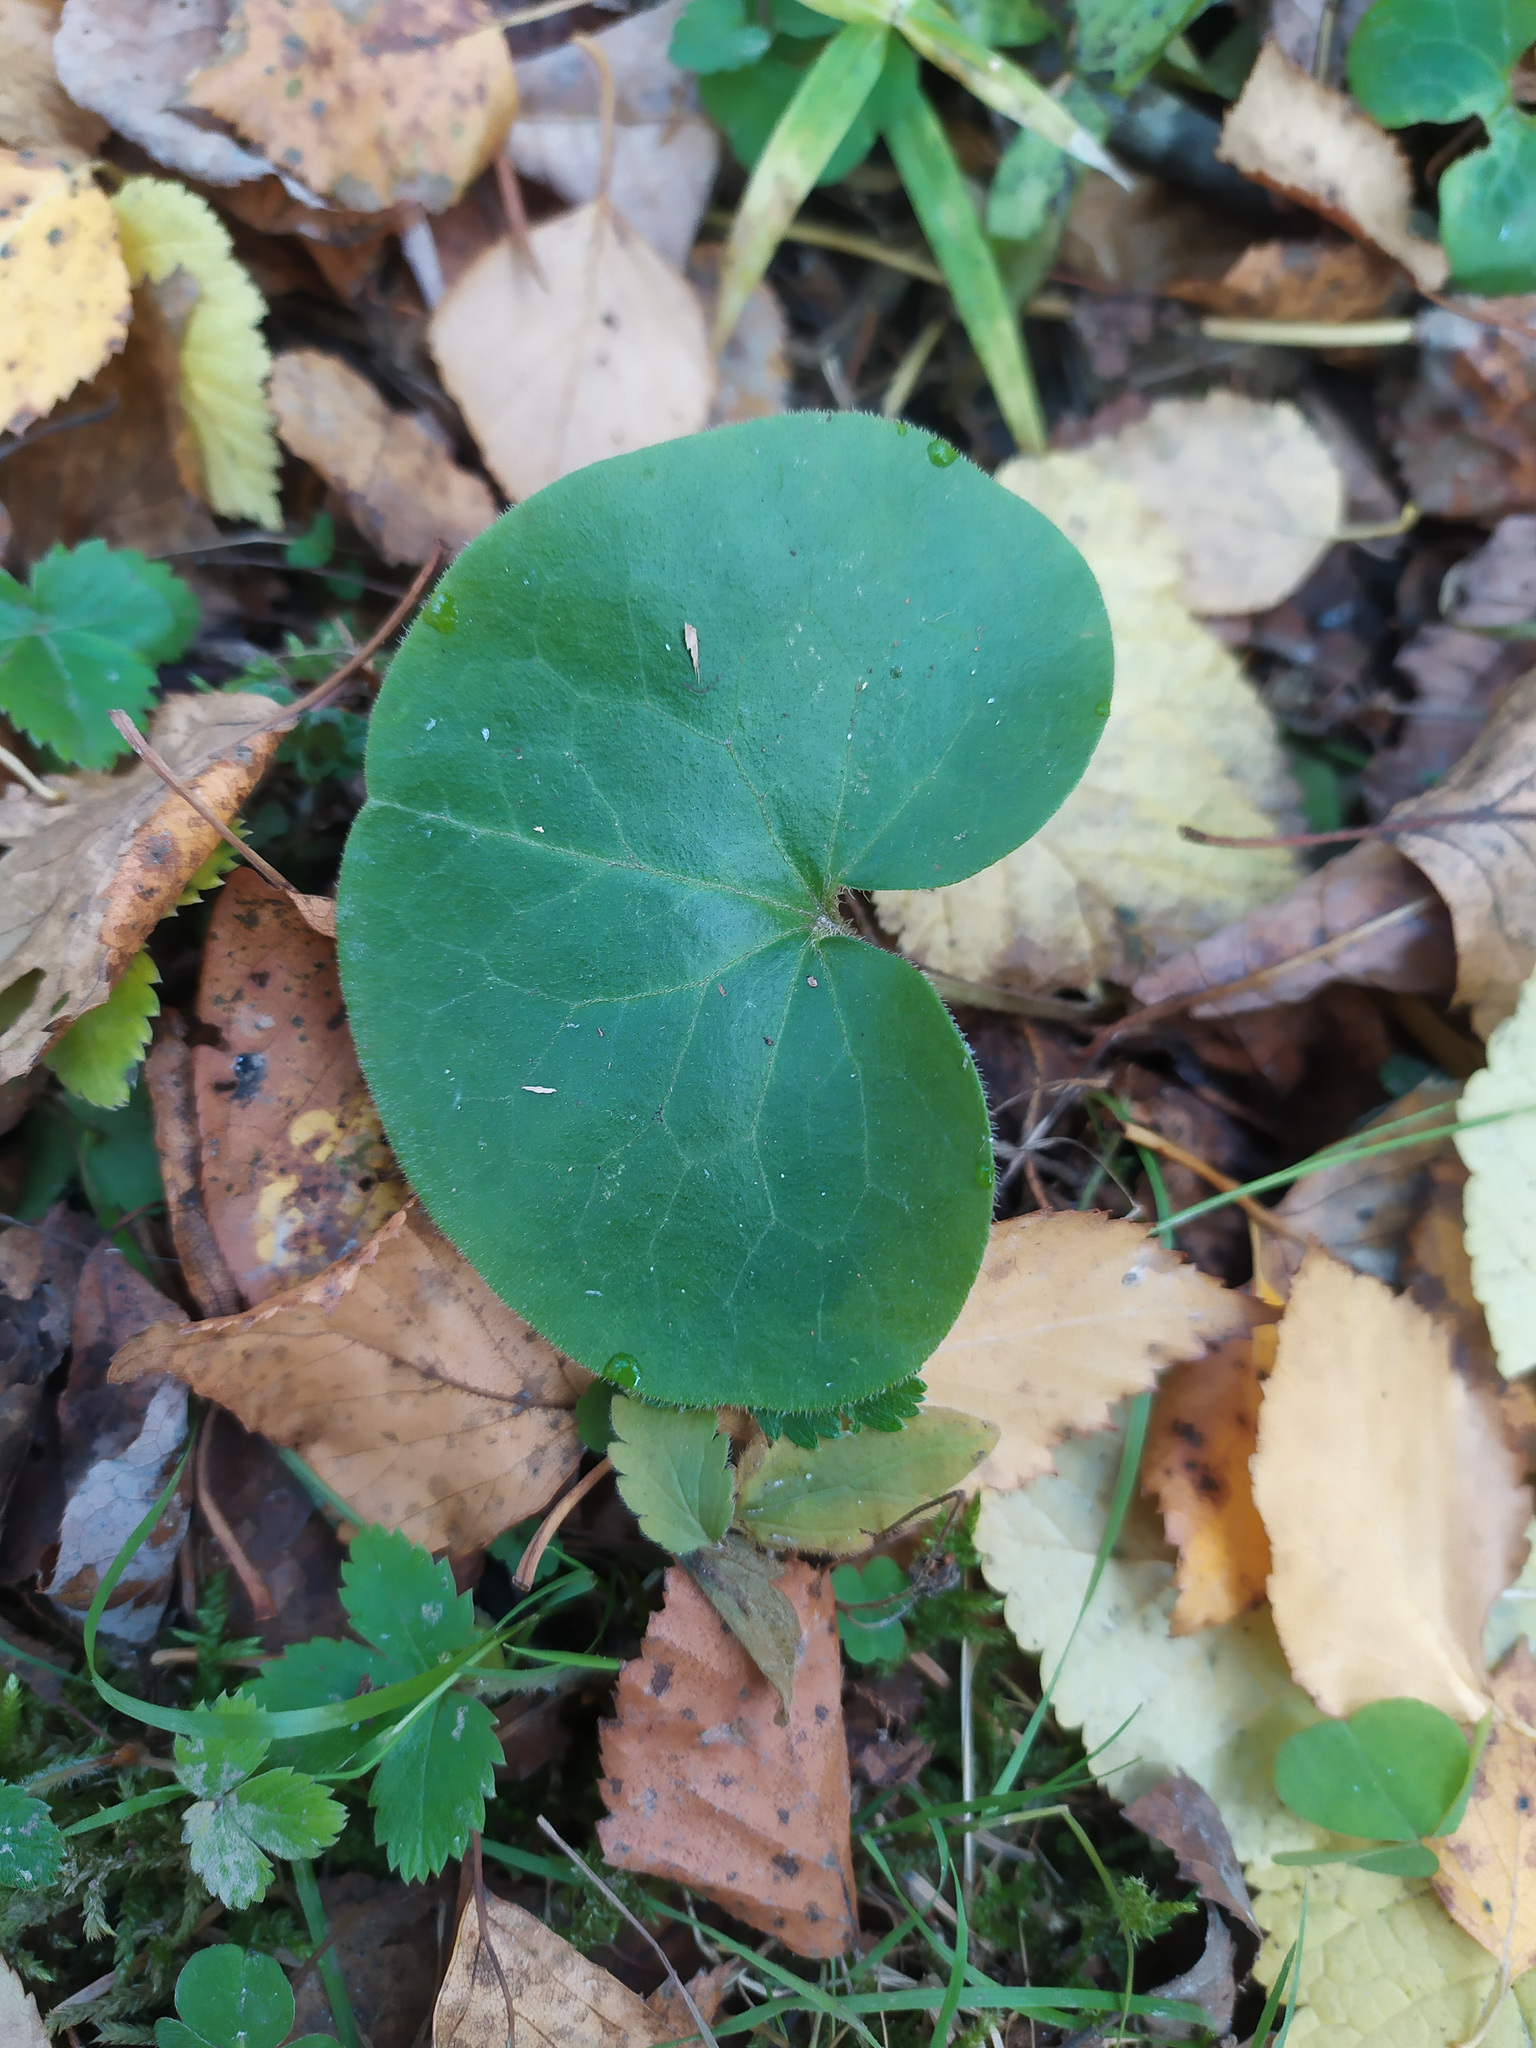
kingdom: Plantae
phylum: Tracheophyta
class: Magnoliopsida
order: Piperales
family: Aristolochiaceae
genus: Asarum
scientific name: Asarum europaeum
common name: Asarabacca
